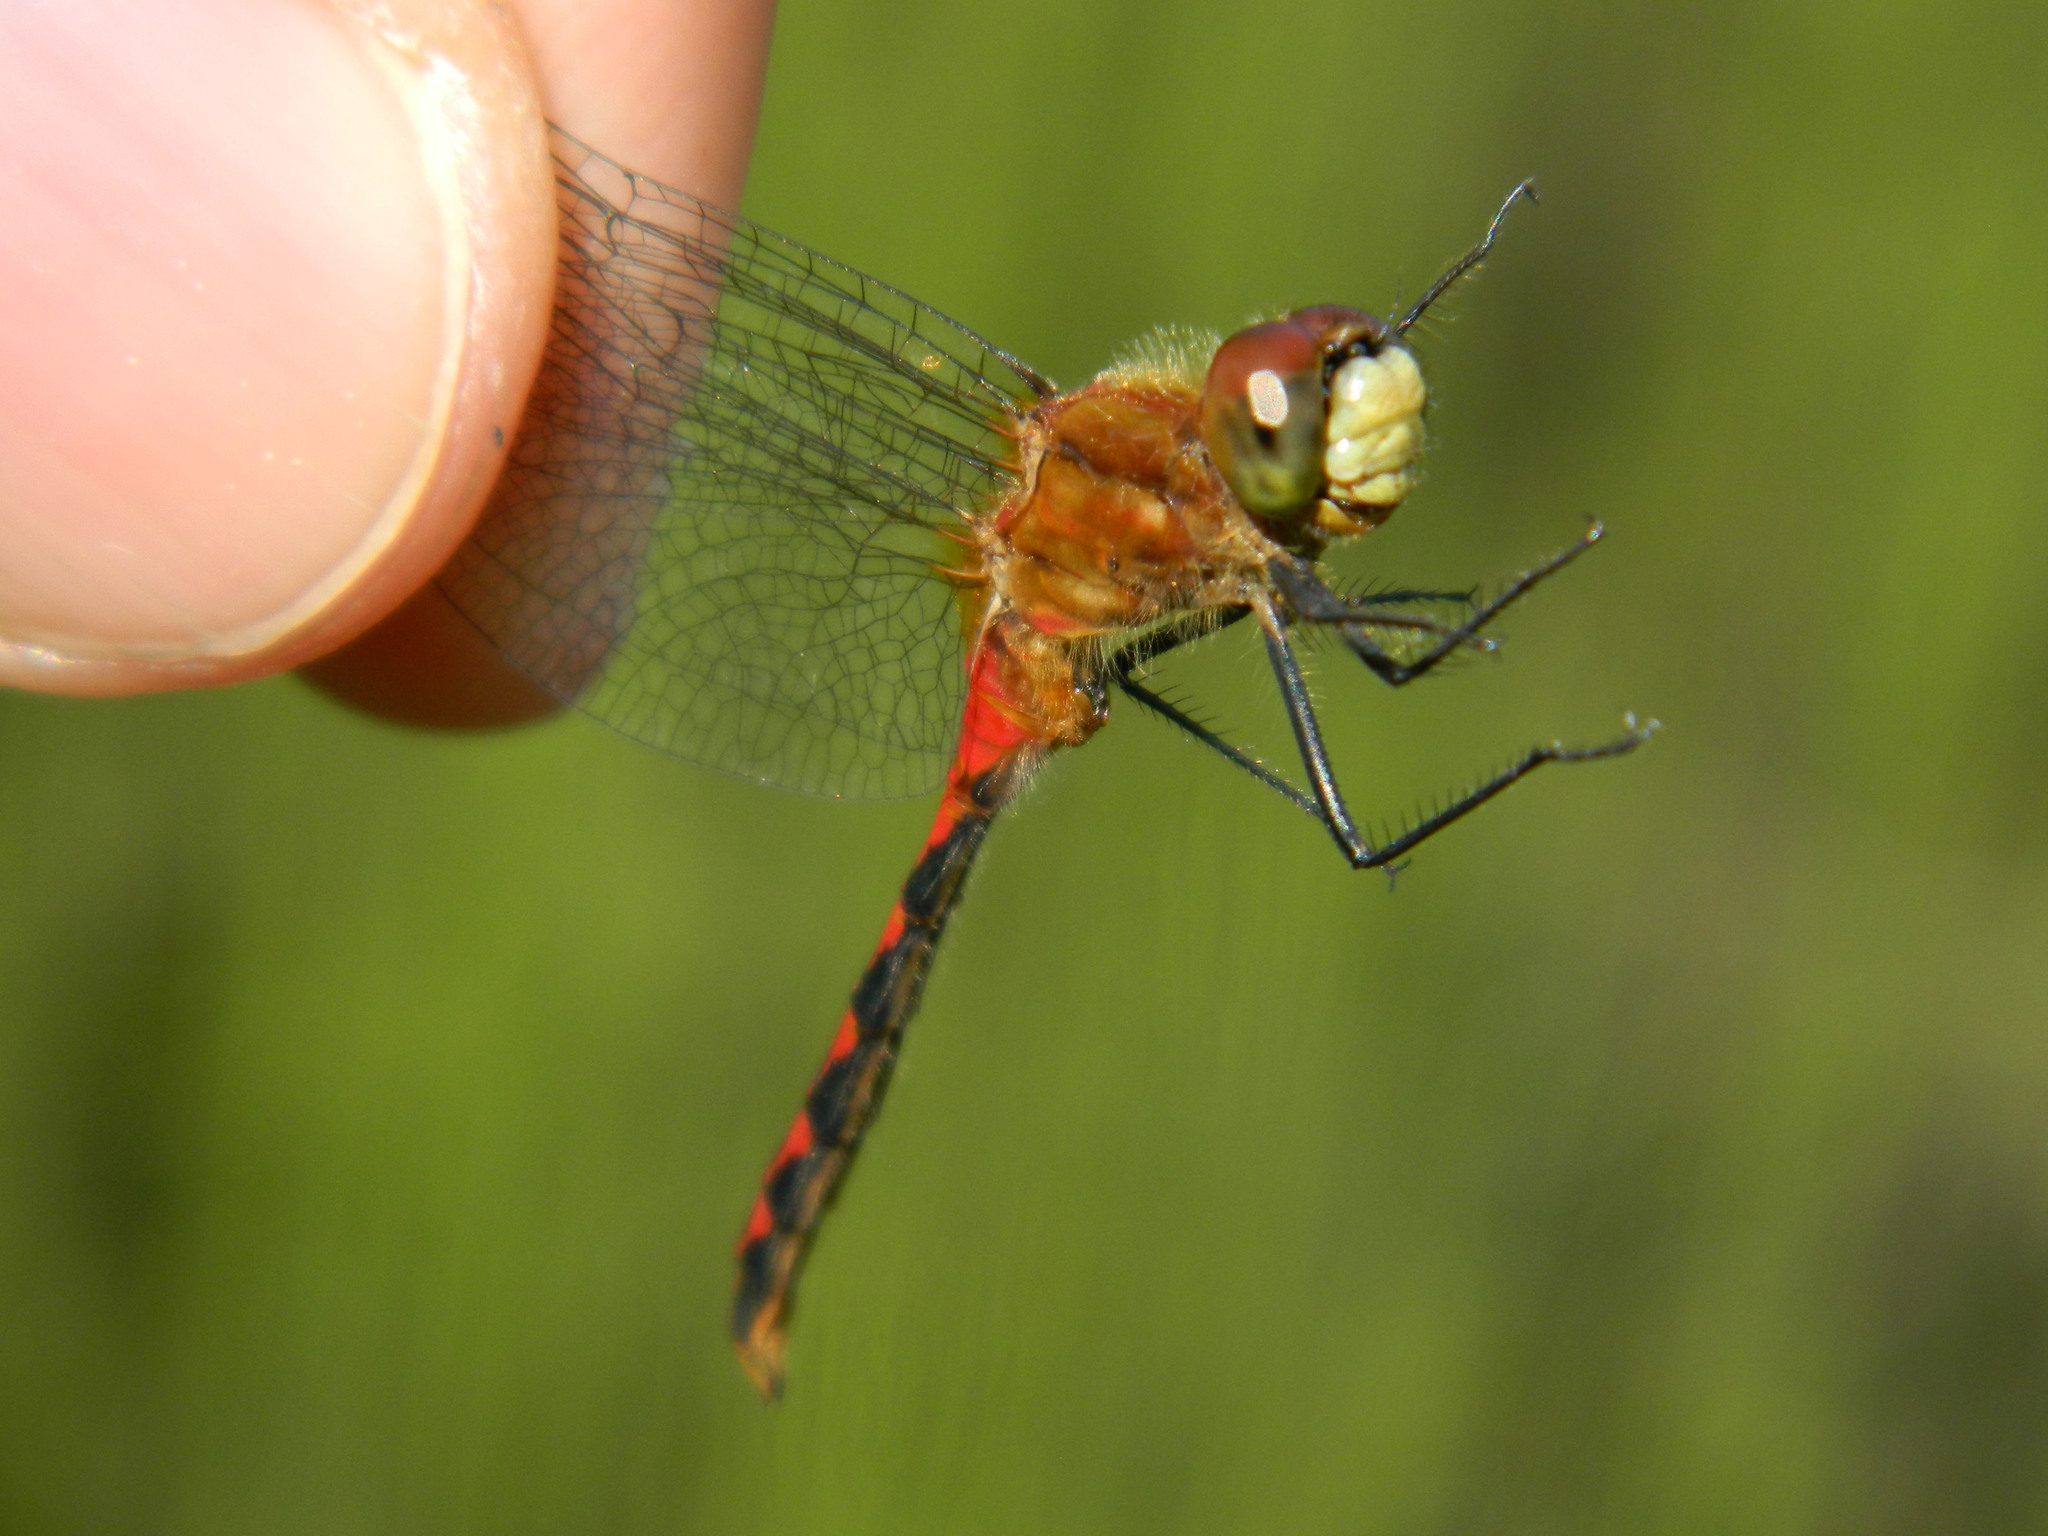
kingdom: Animalia
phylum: Arthropoda
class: Insecta
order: Odonata
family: Libellulidae
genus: Sympetrum
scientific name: Sympetrum obtrusum
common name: White-faced meadowhawk
